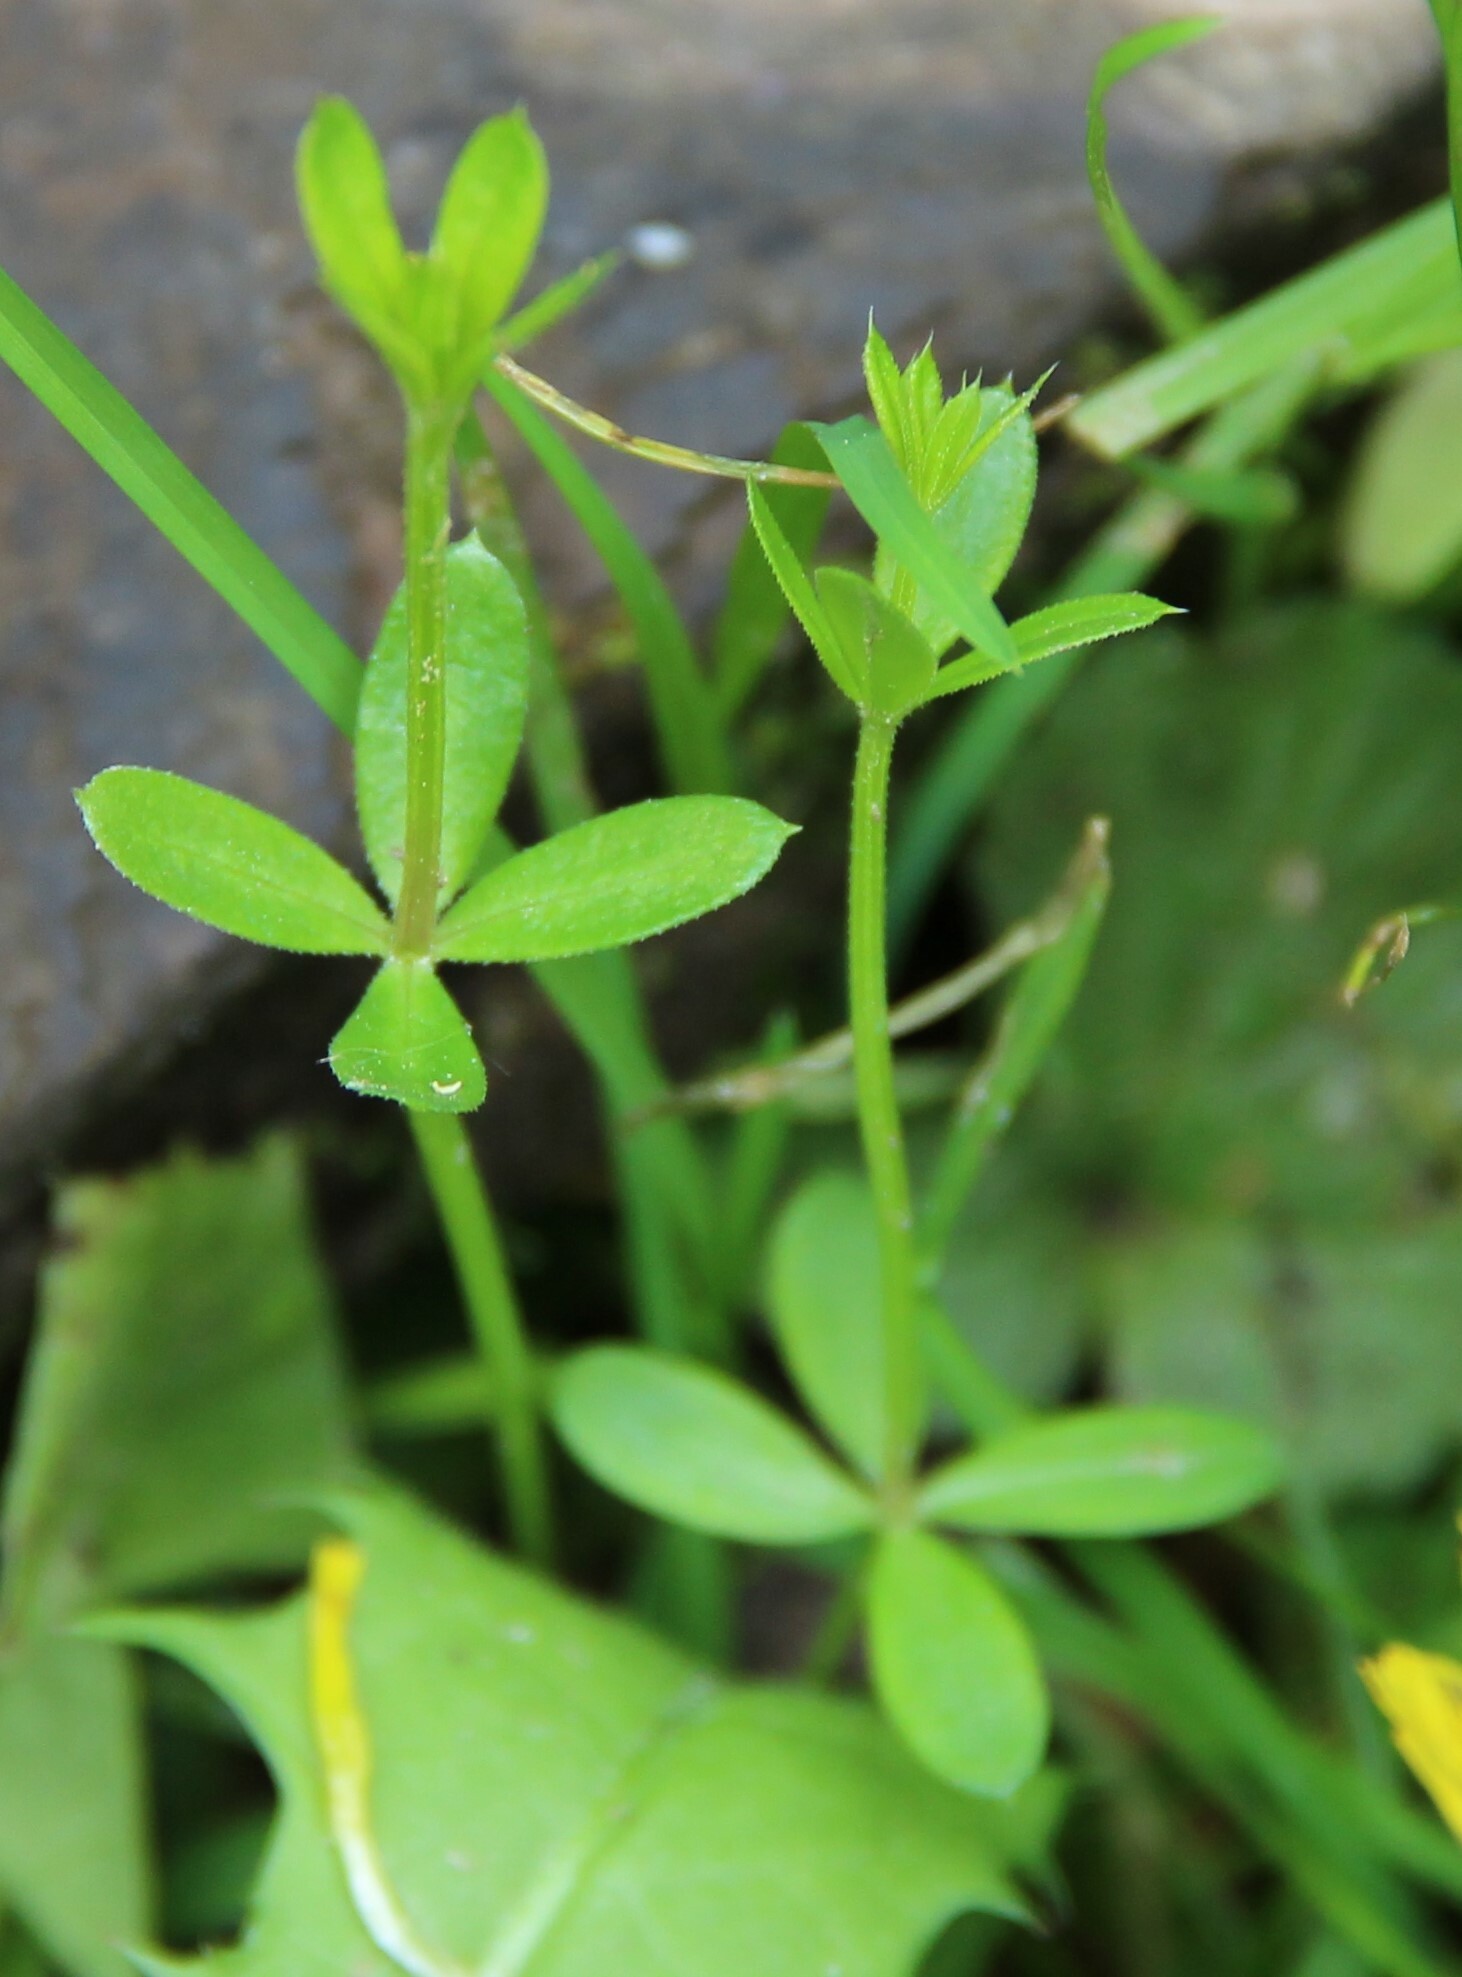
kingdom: Plantae
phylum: Tracheophyta
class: Magnoliopsida
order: Gentianales
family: Rubiaceae
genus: Galium
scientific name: Galium uliginosum
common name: Fen bedstraw
